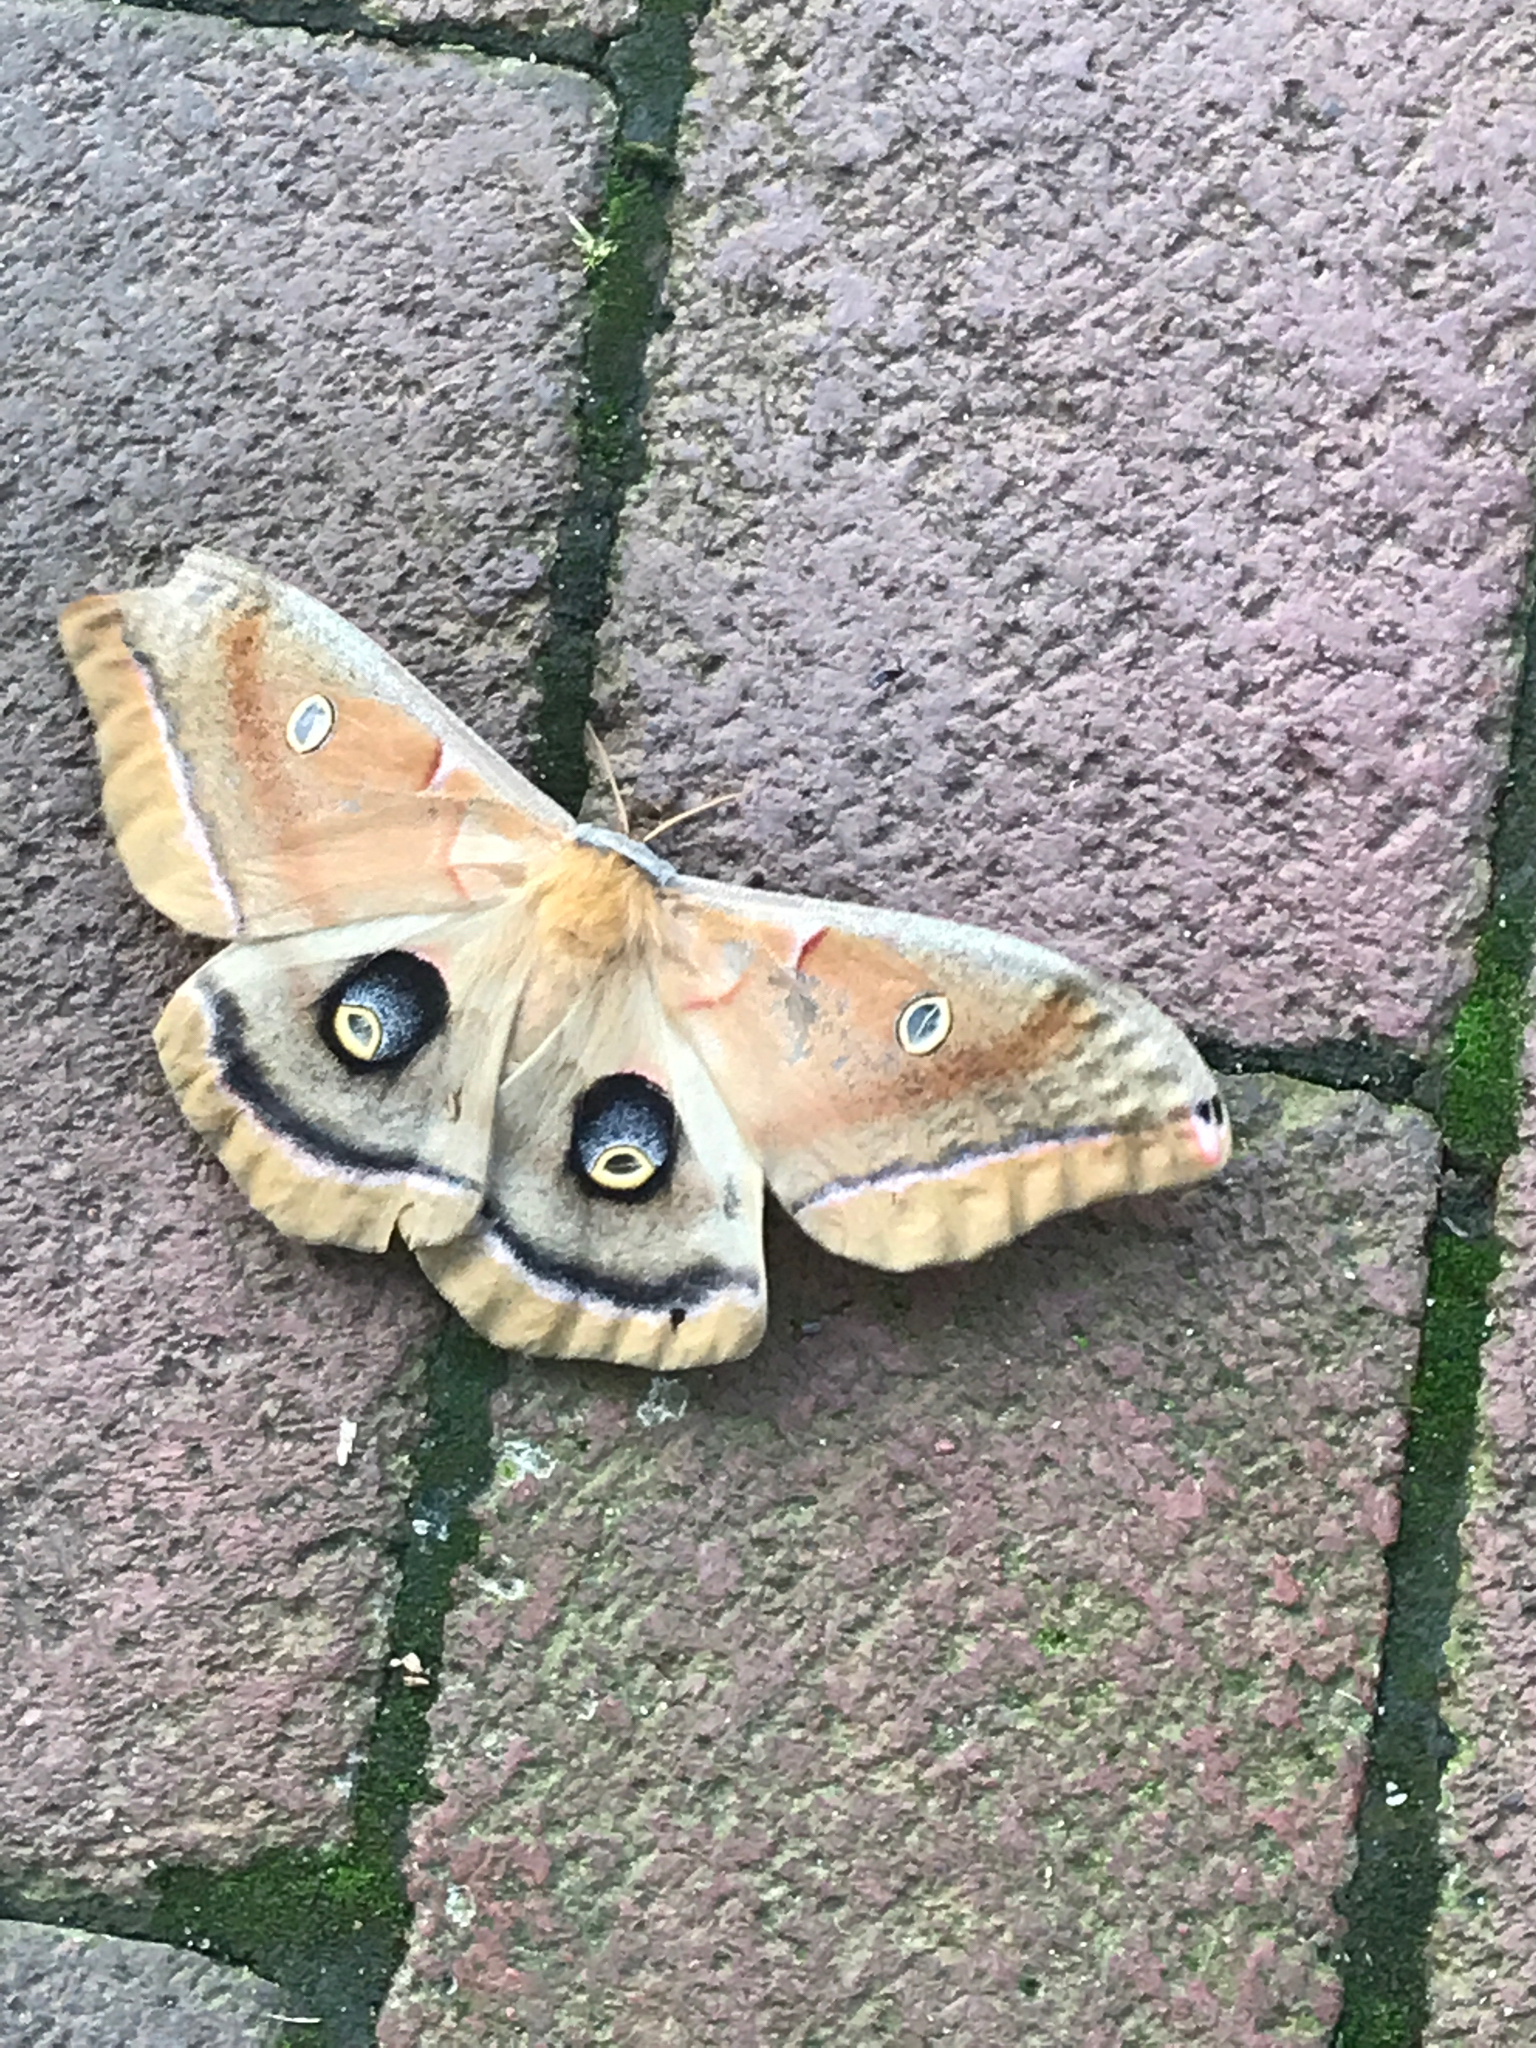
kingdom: Animalia
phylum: Arthropoda
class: Insecta
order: Lepidoptera
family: Saturniidae
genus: Antheraea
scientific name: Antheraea polyphemus
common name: Polyphemus moth
